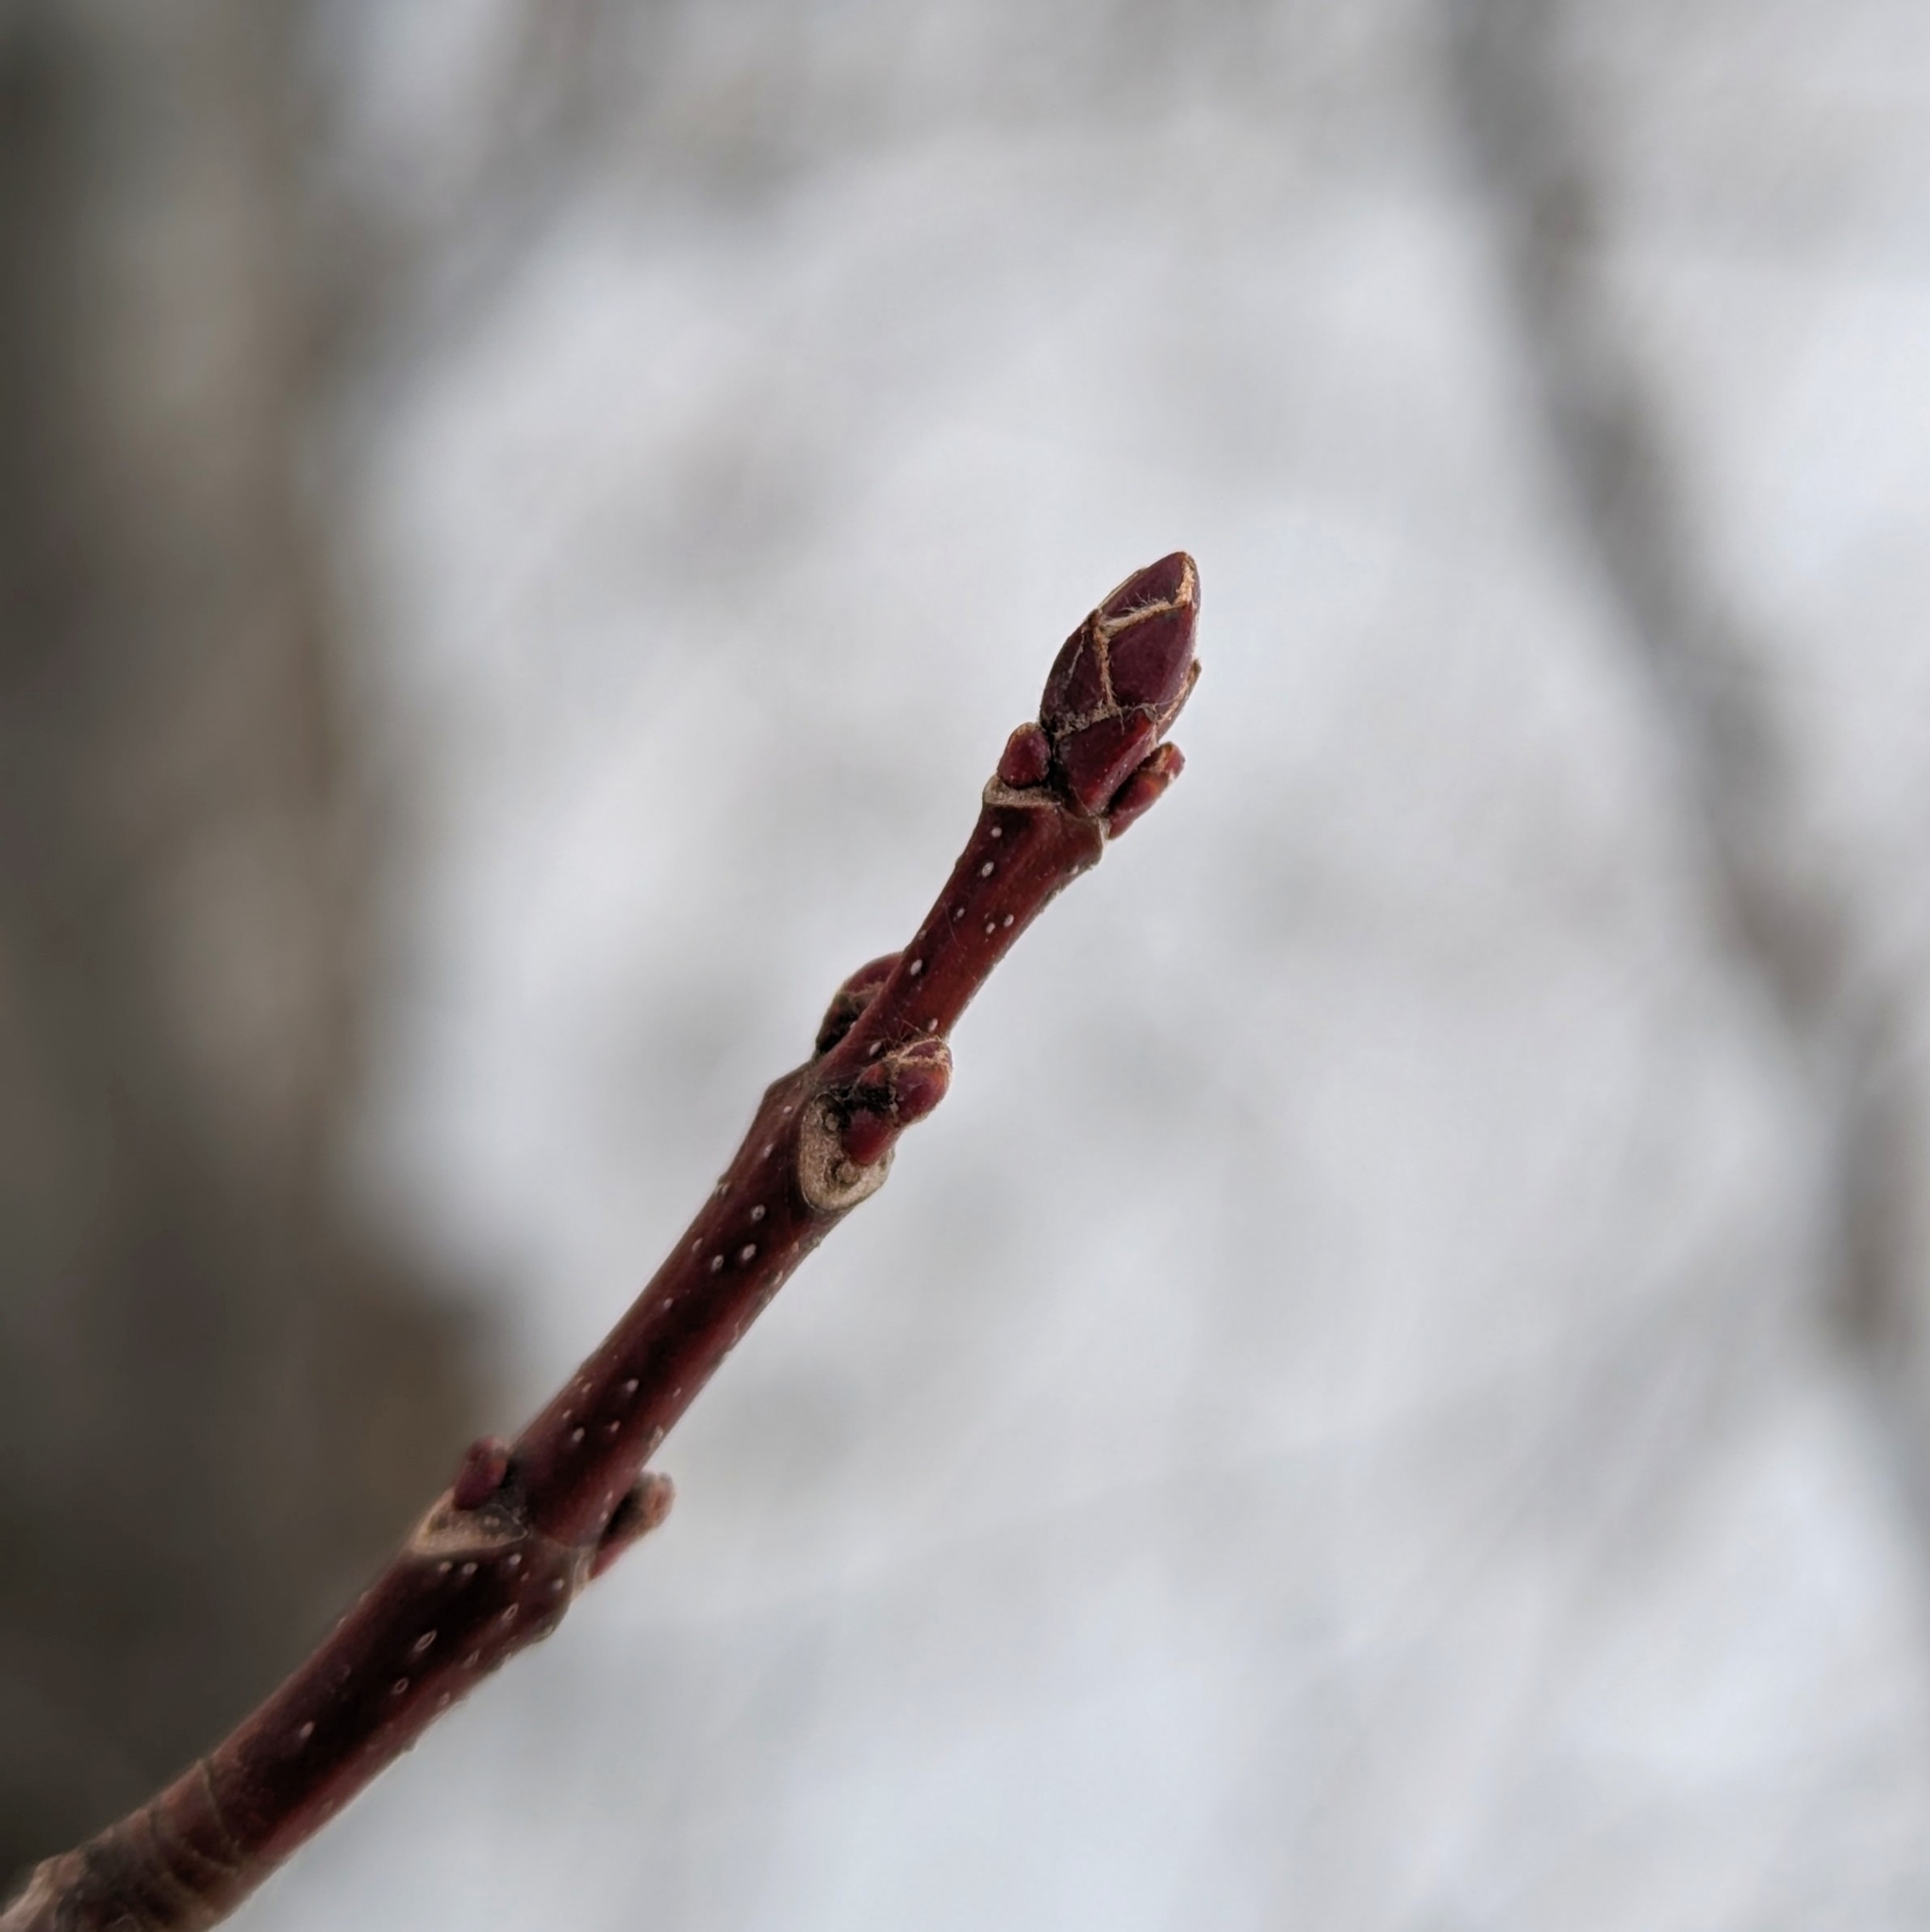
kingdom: Plantae
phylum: Tracheophyta
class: Magnoliopsida
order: Gentianales
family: Rubiaceae
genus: Rubia
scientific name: Rubia
